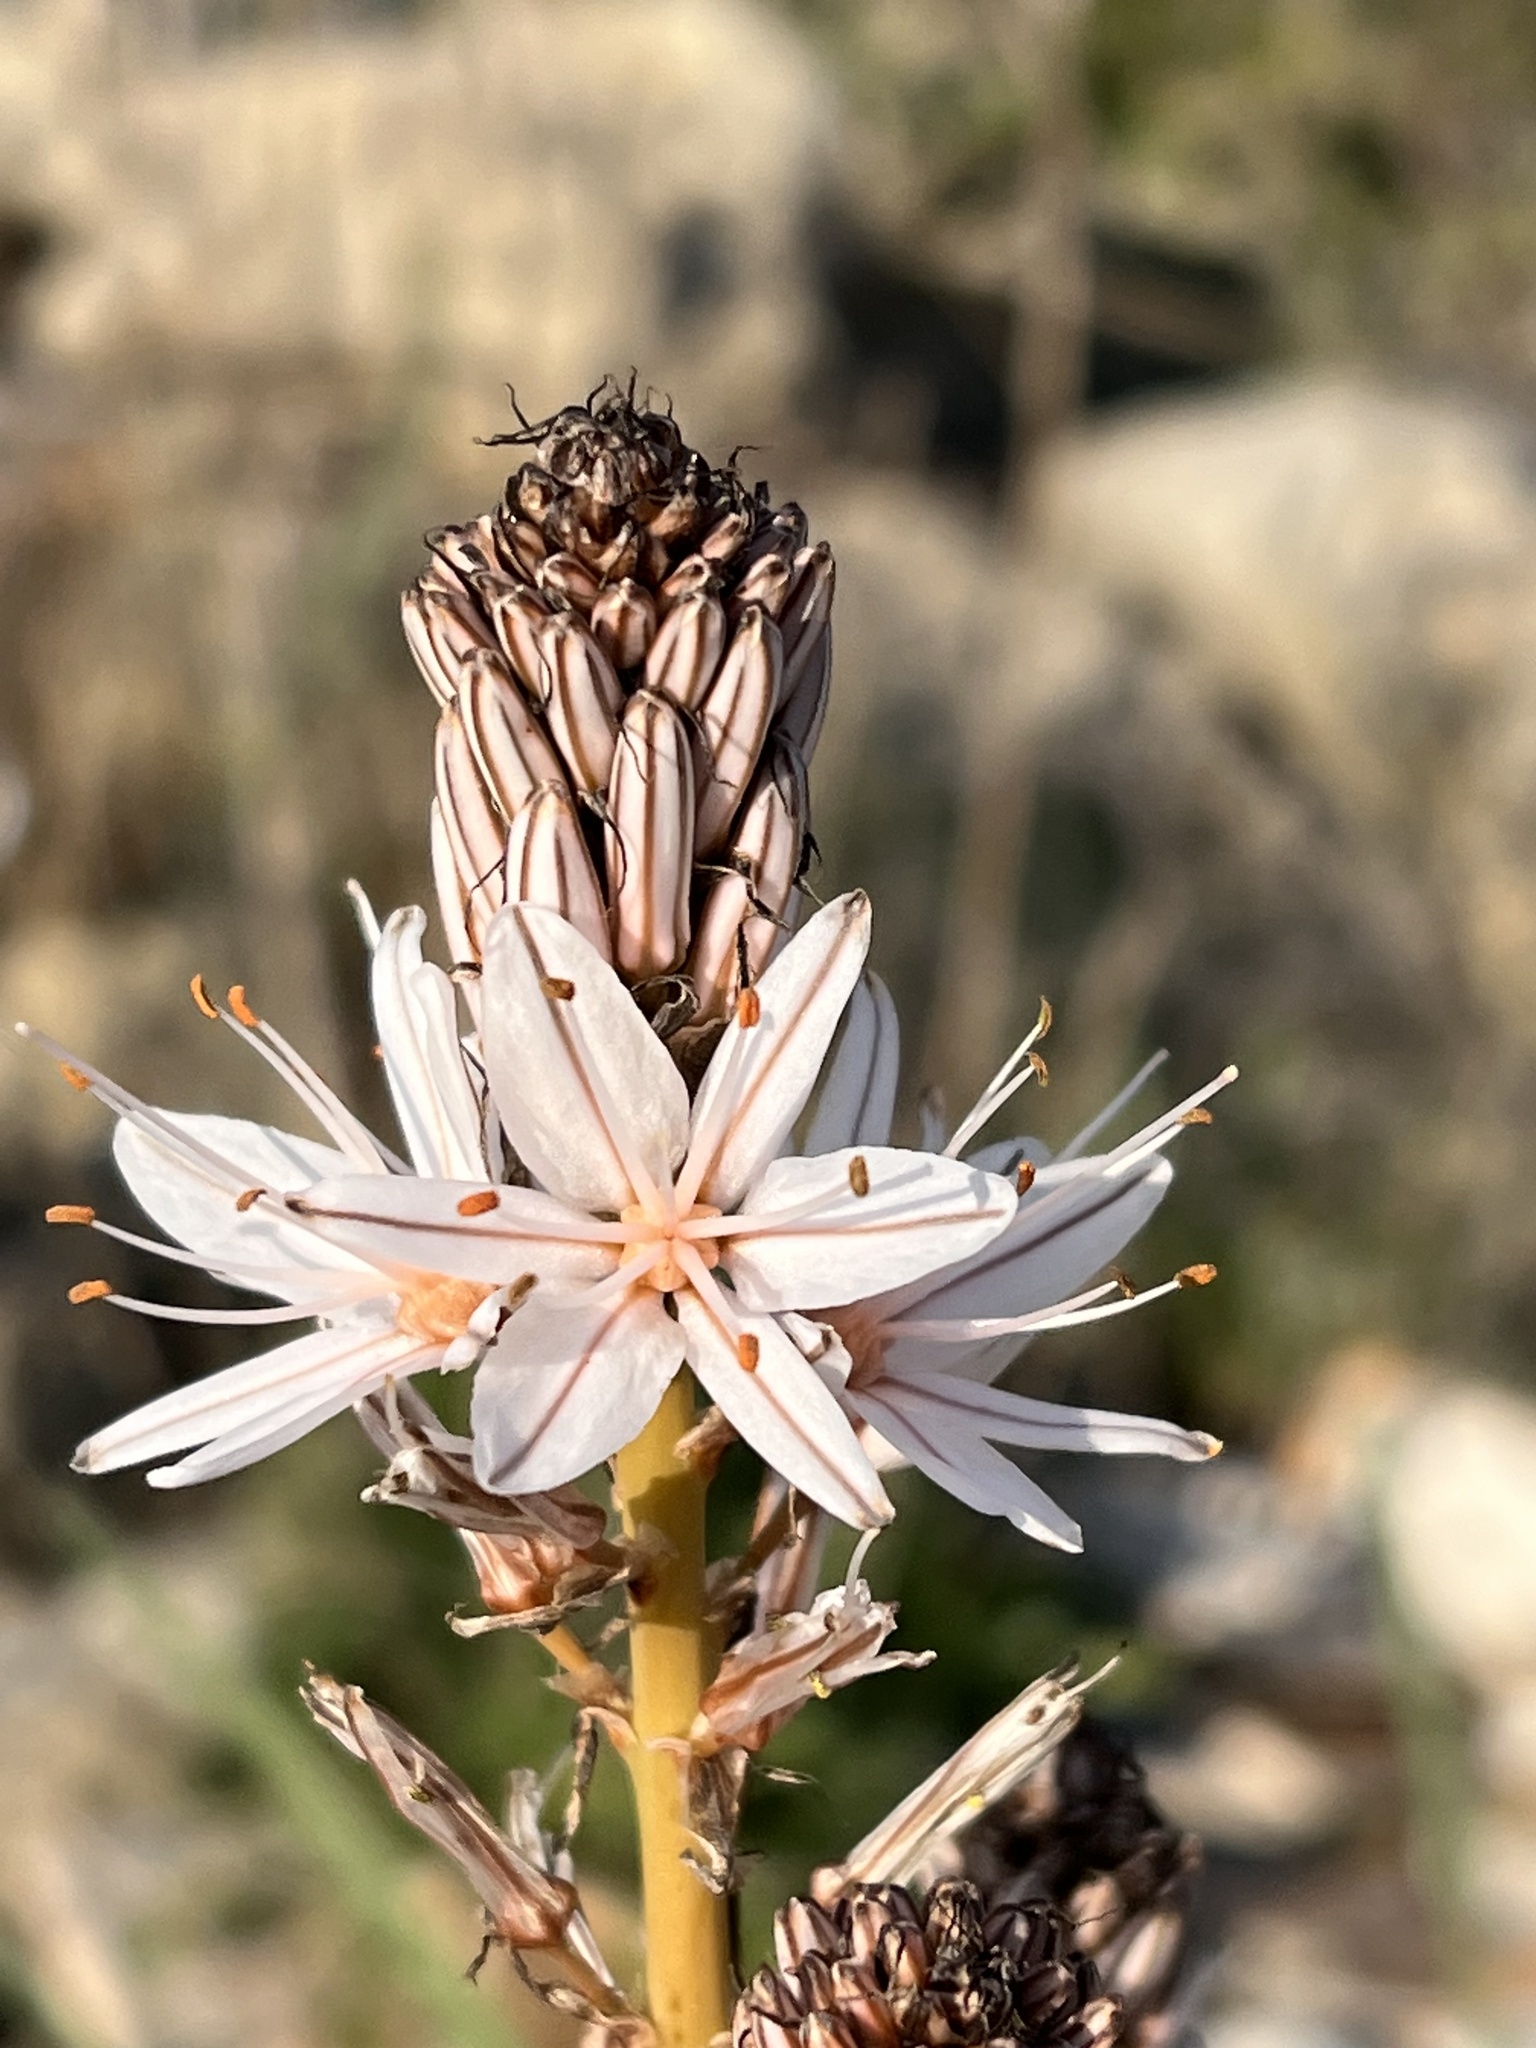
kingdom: Plantae
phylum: Tracheophyta
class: Liliopsida
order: Asparagales
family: Asphodelaceae
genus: Asphodelus
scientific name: Asphodelus ramosus
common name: Silverrod
